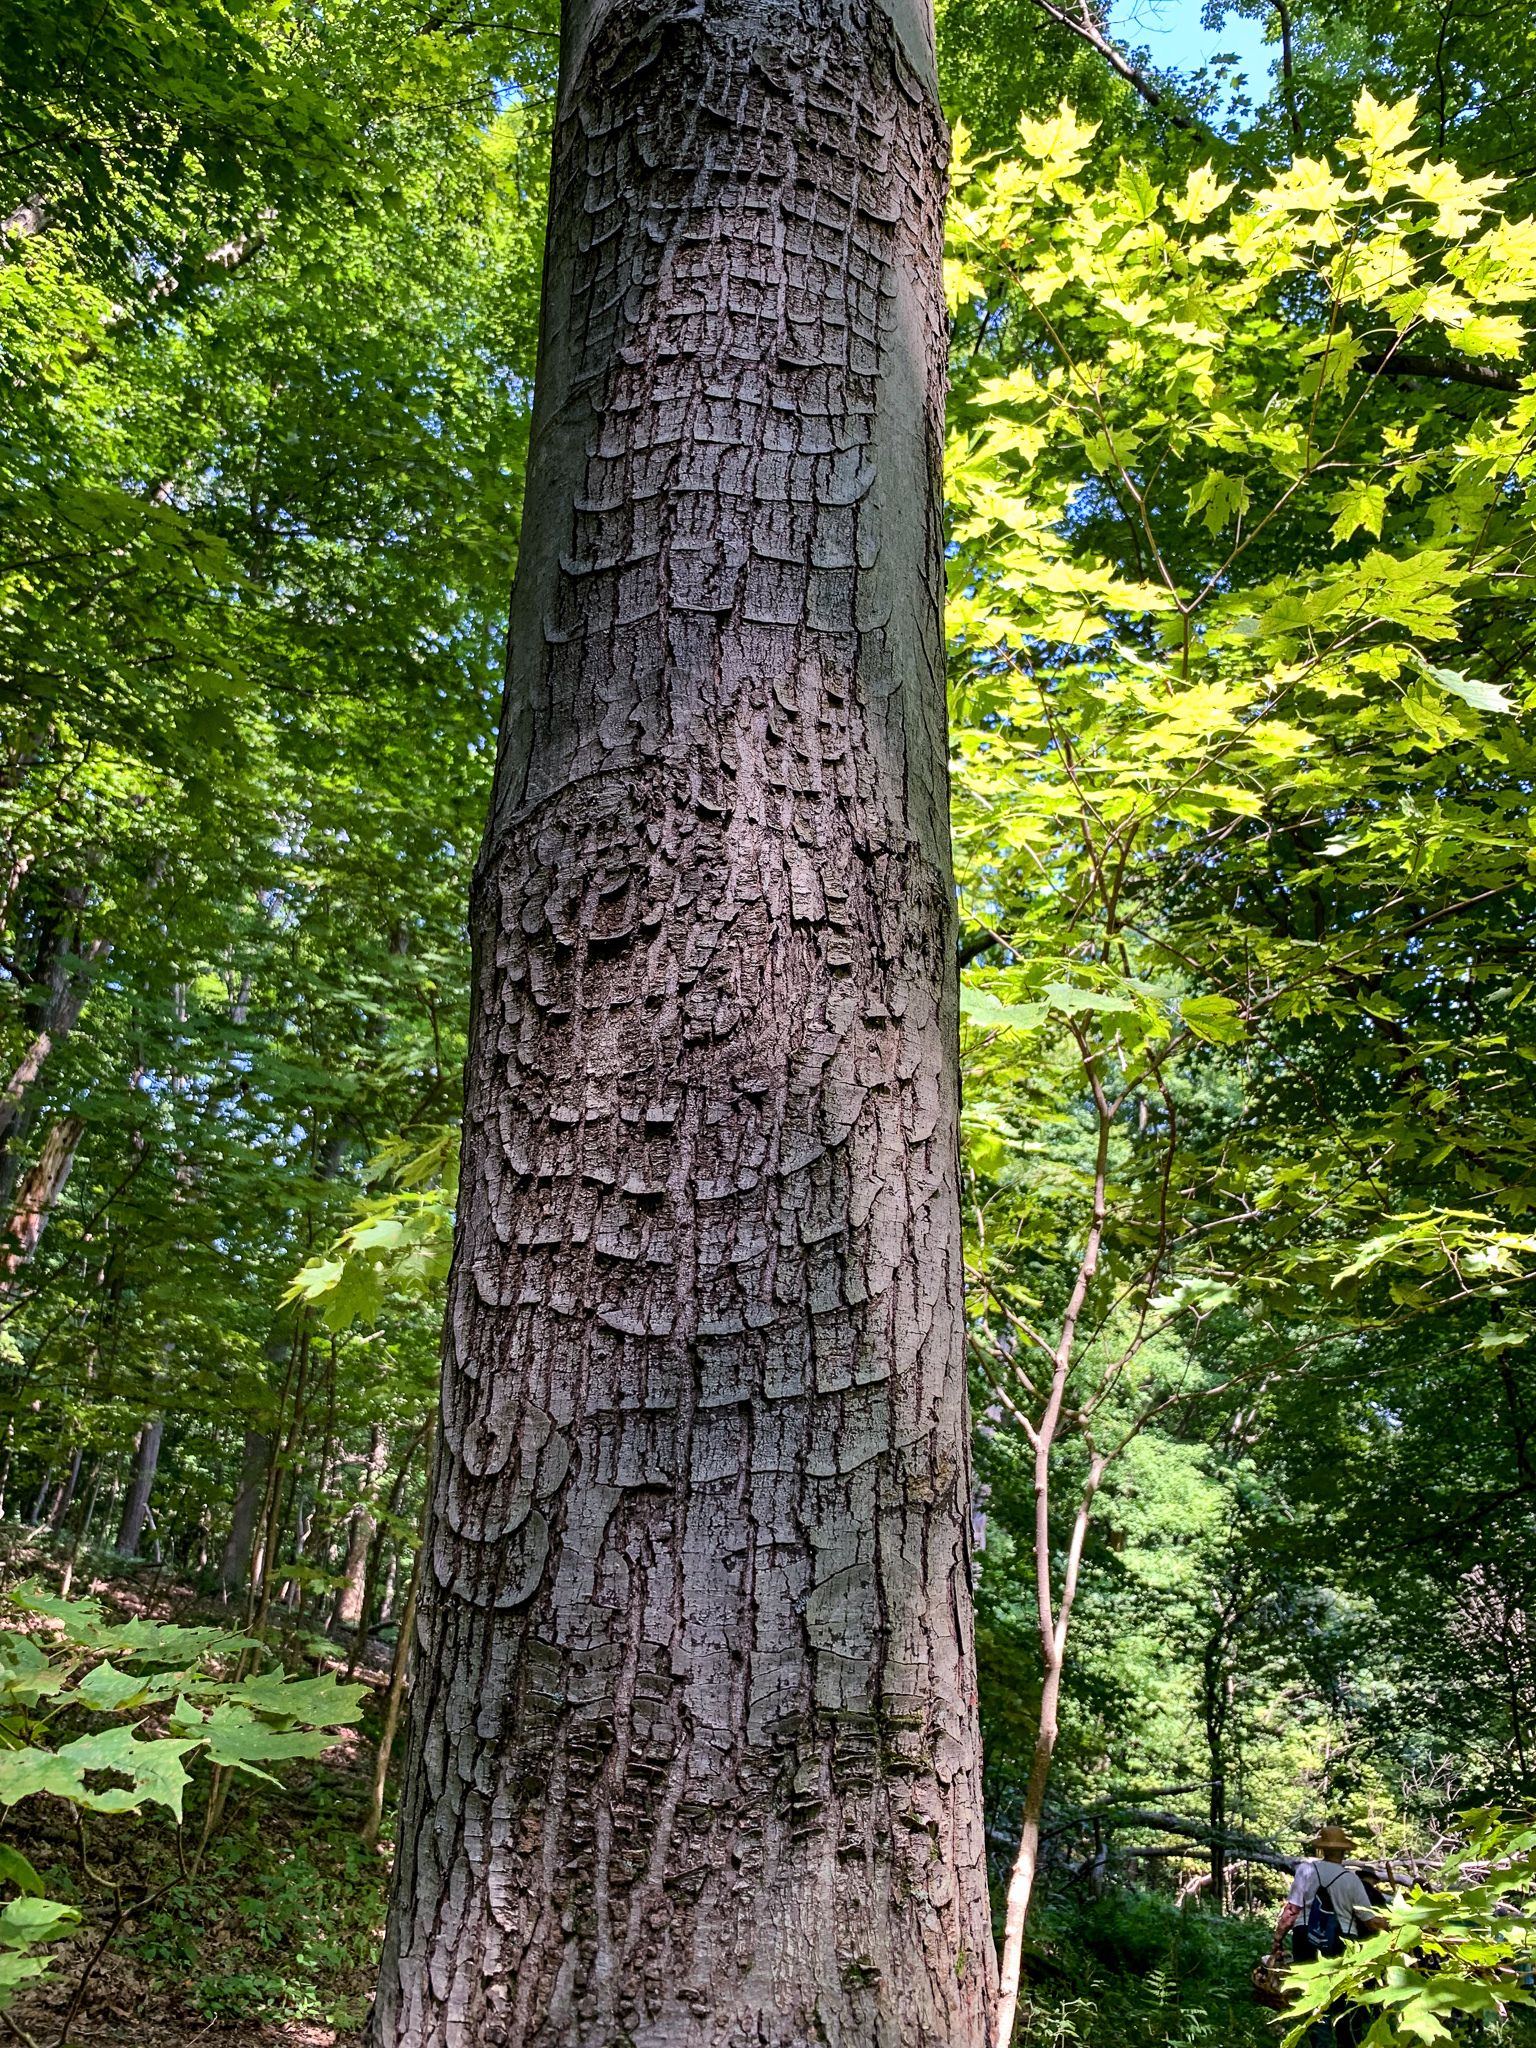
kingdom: Fungi
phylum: Ascomycota
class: Sordariomycetes
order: Hypocreales
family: Nectriaceae
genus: Neonectria
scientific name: Neonectria ditissima
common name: Apple canker
